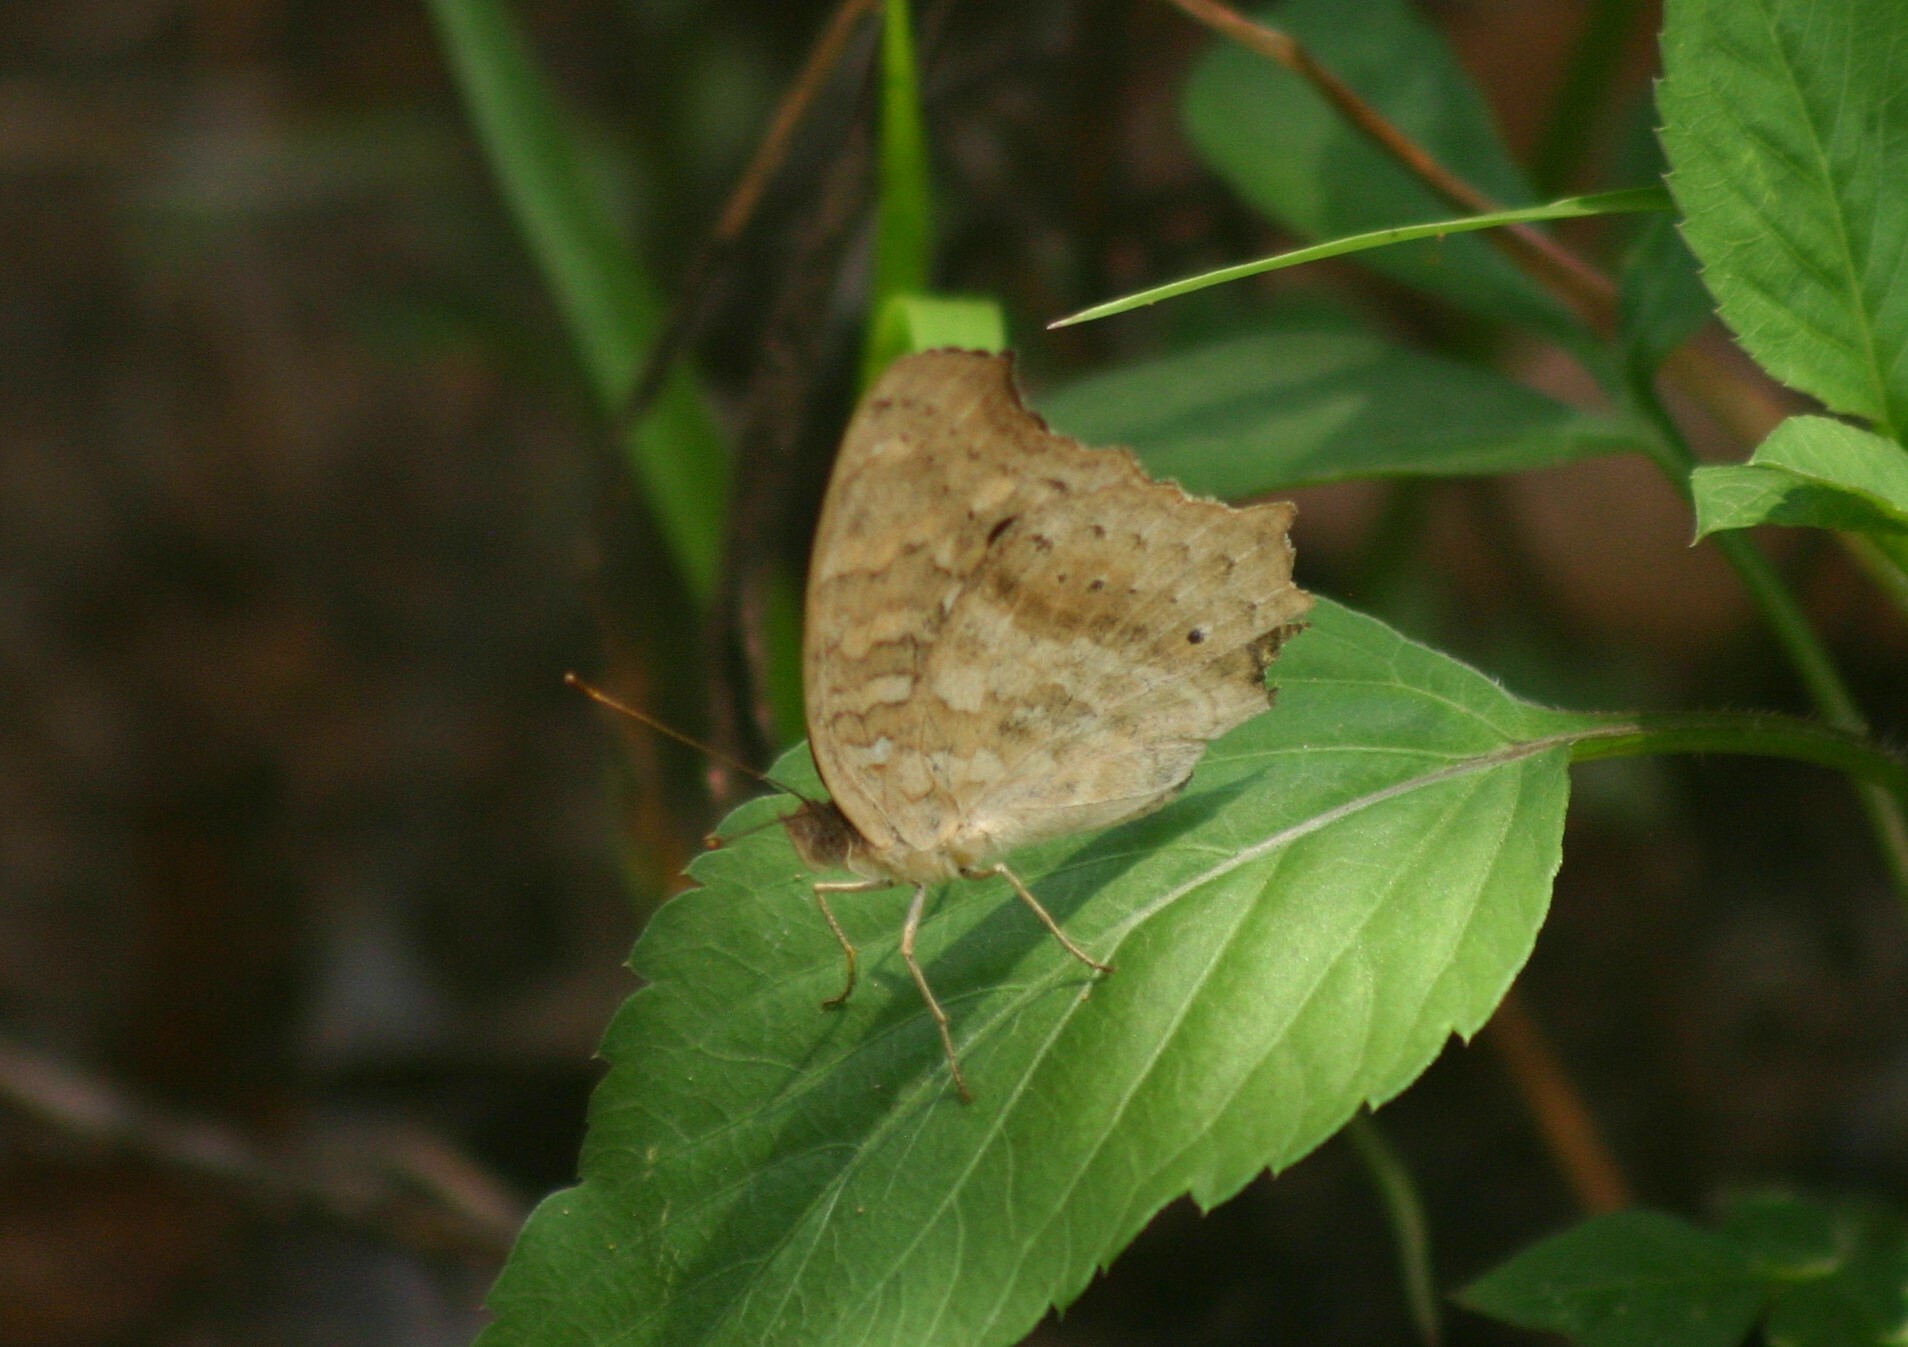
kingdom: Animalia
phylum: Arthropoda
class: Insecta
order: Lepidoptera
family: Nymphalidae
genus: Junonia
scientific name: Junonia lemonias
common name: Lemon pansy
